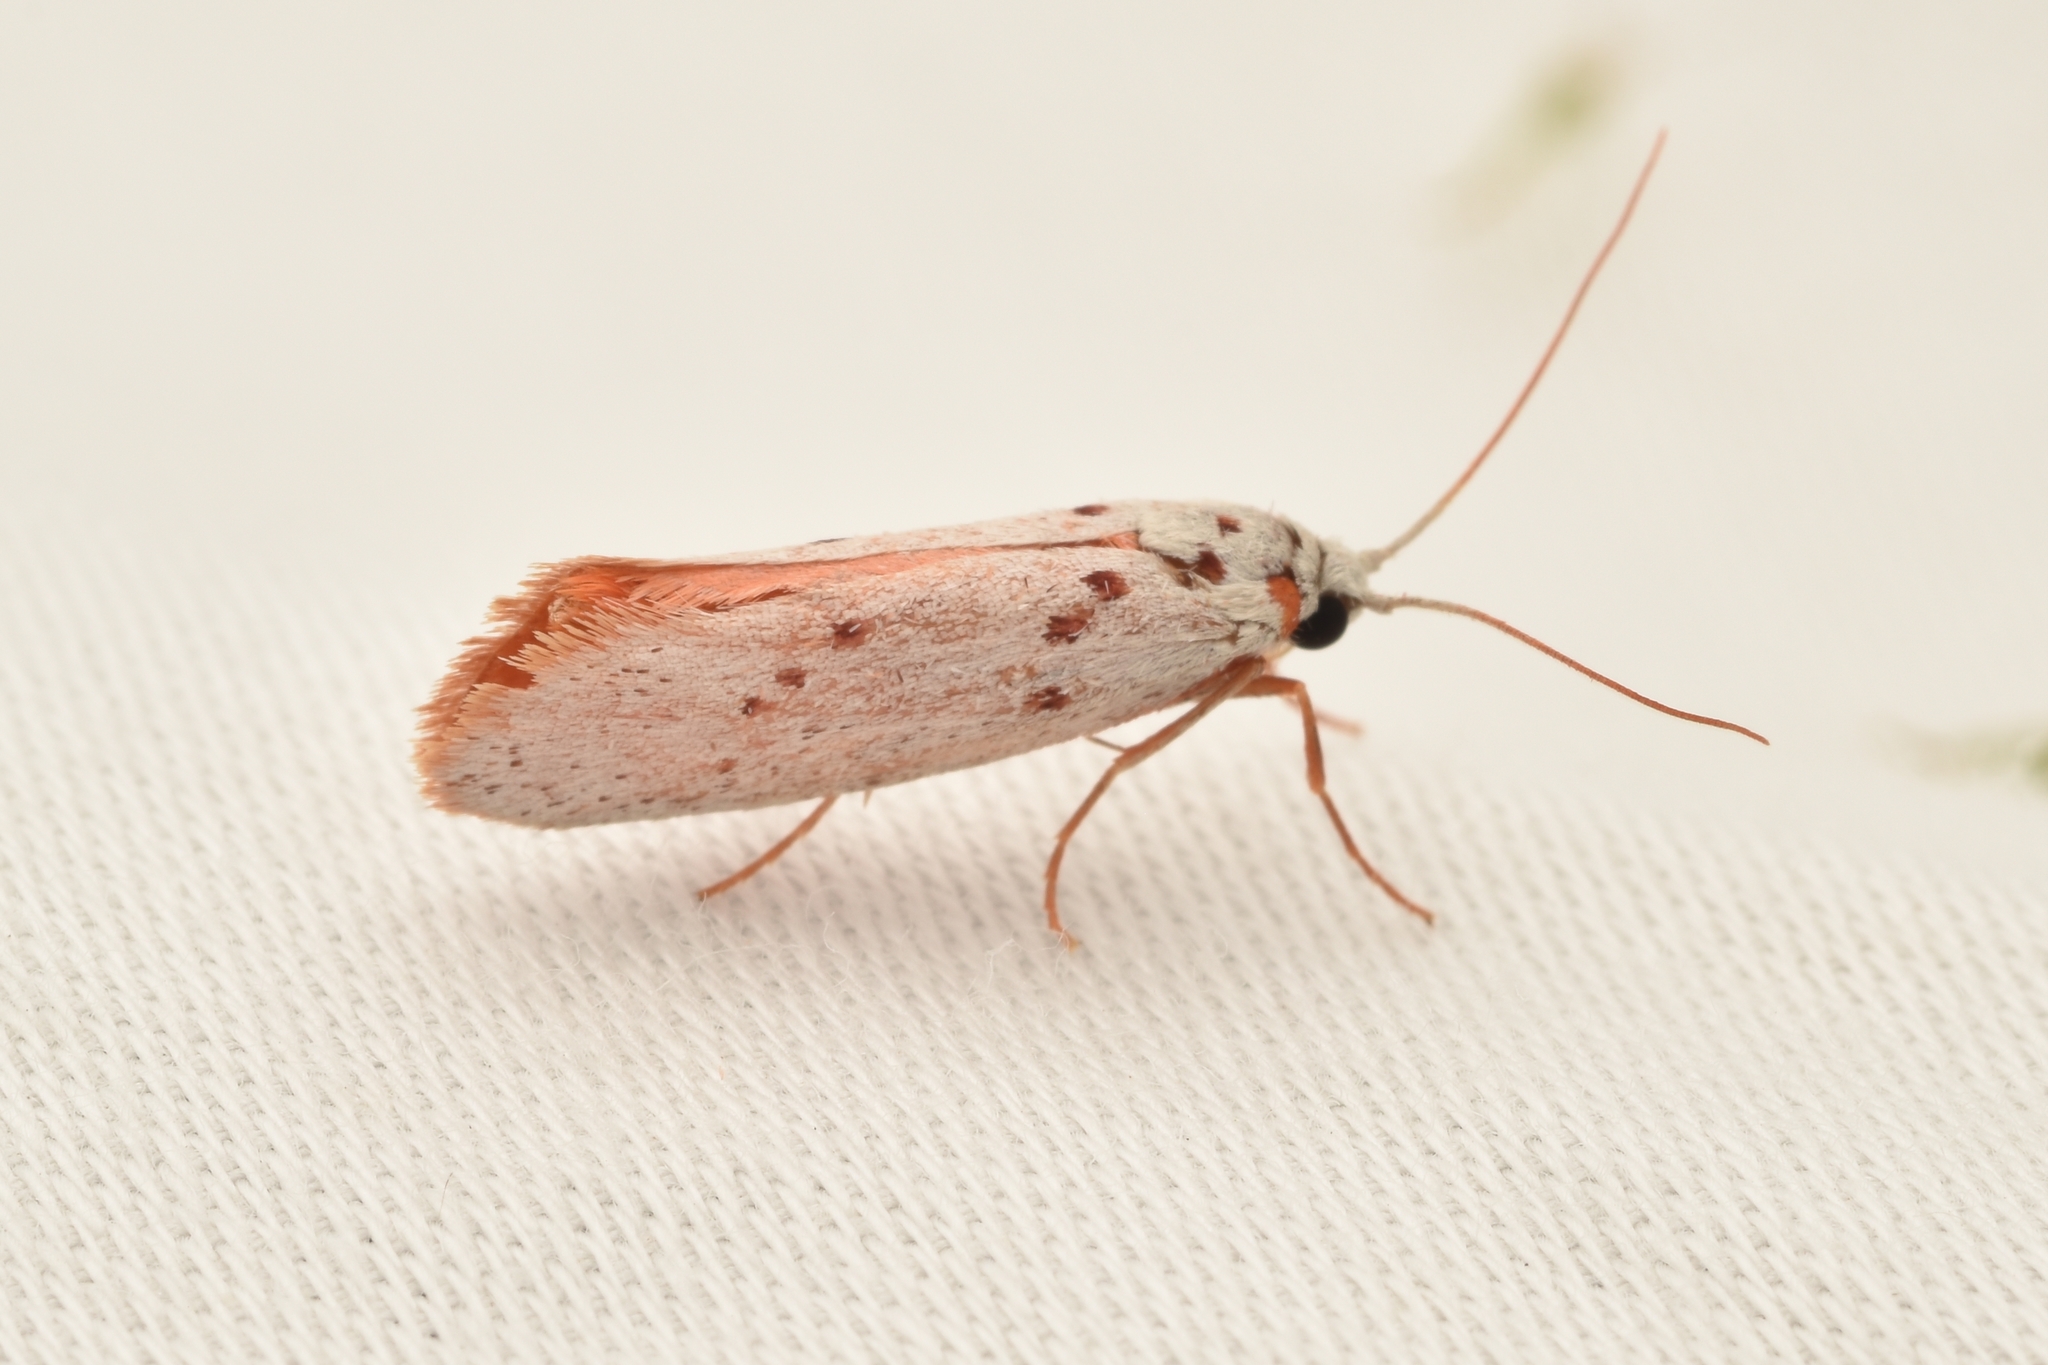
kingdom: Animalia
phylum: Arthropoda
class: Insecta
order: Lepidoptera
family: Lacturidae
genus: Lactura
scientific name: Lactura
